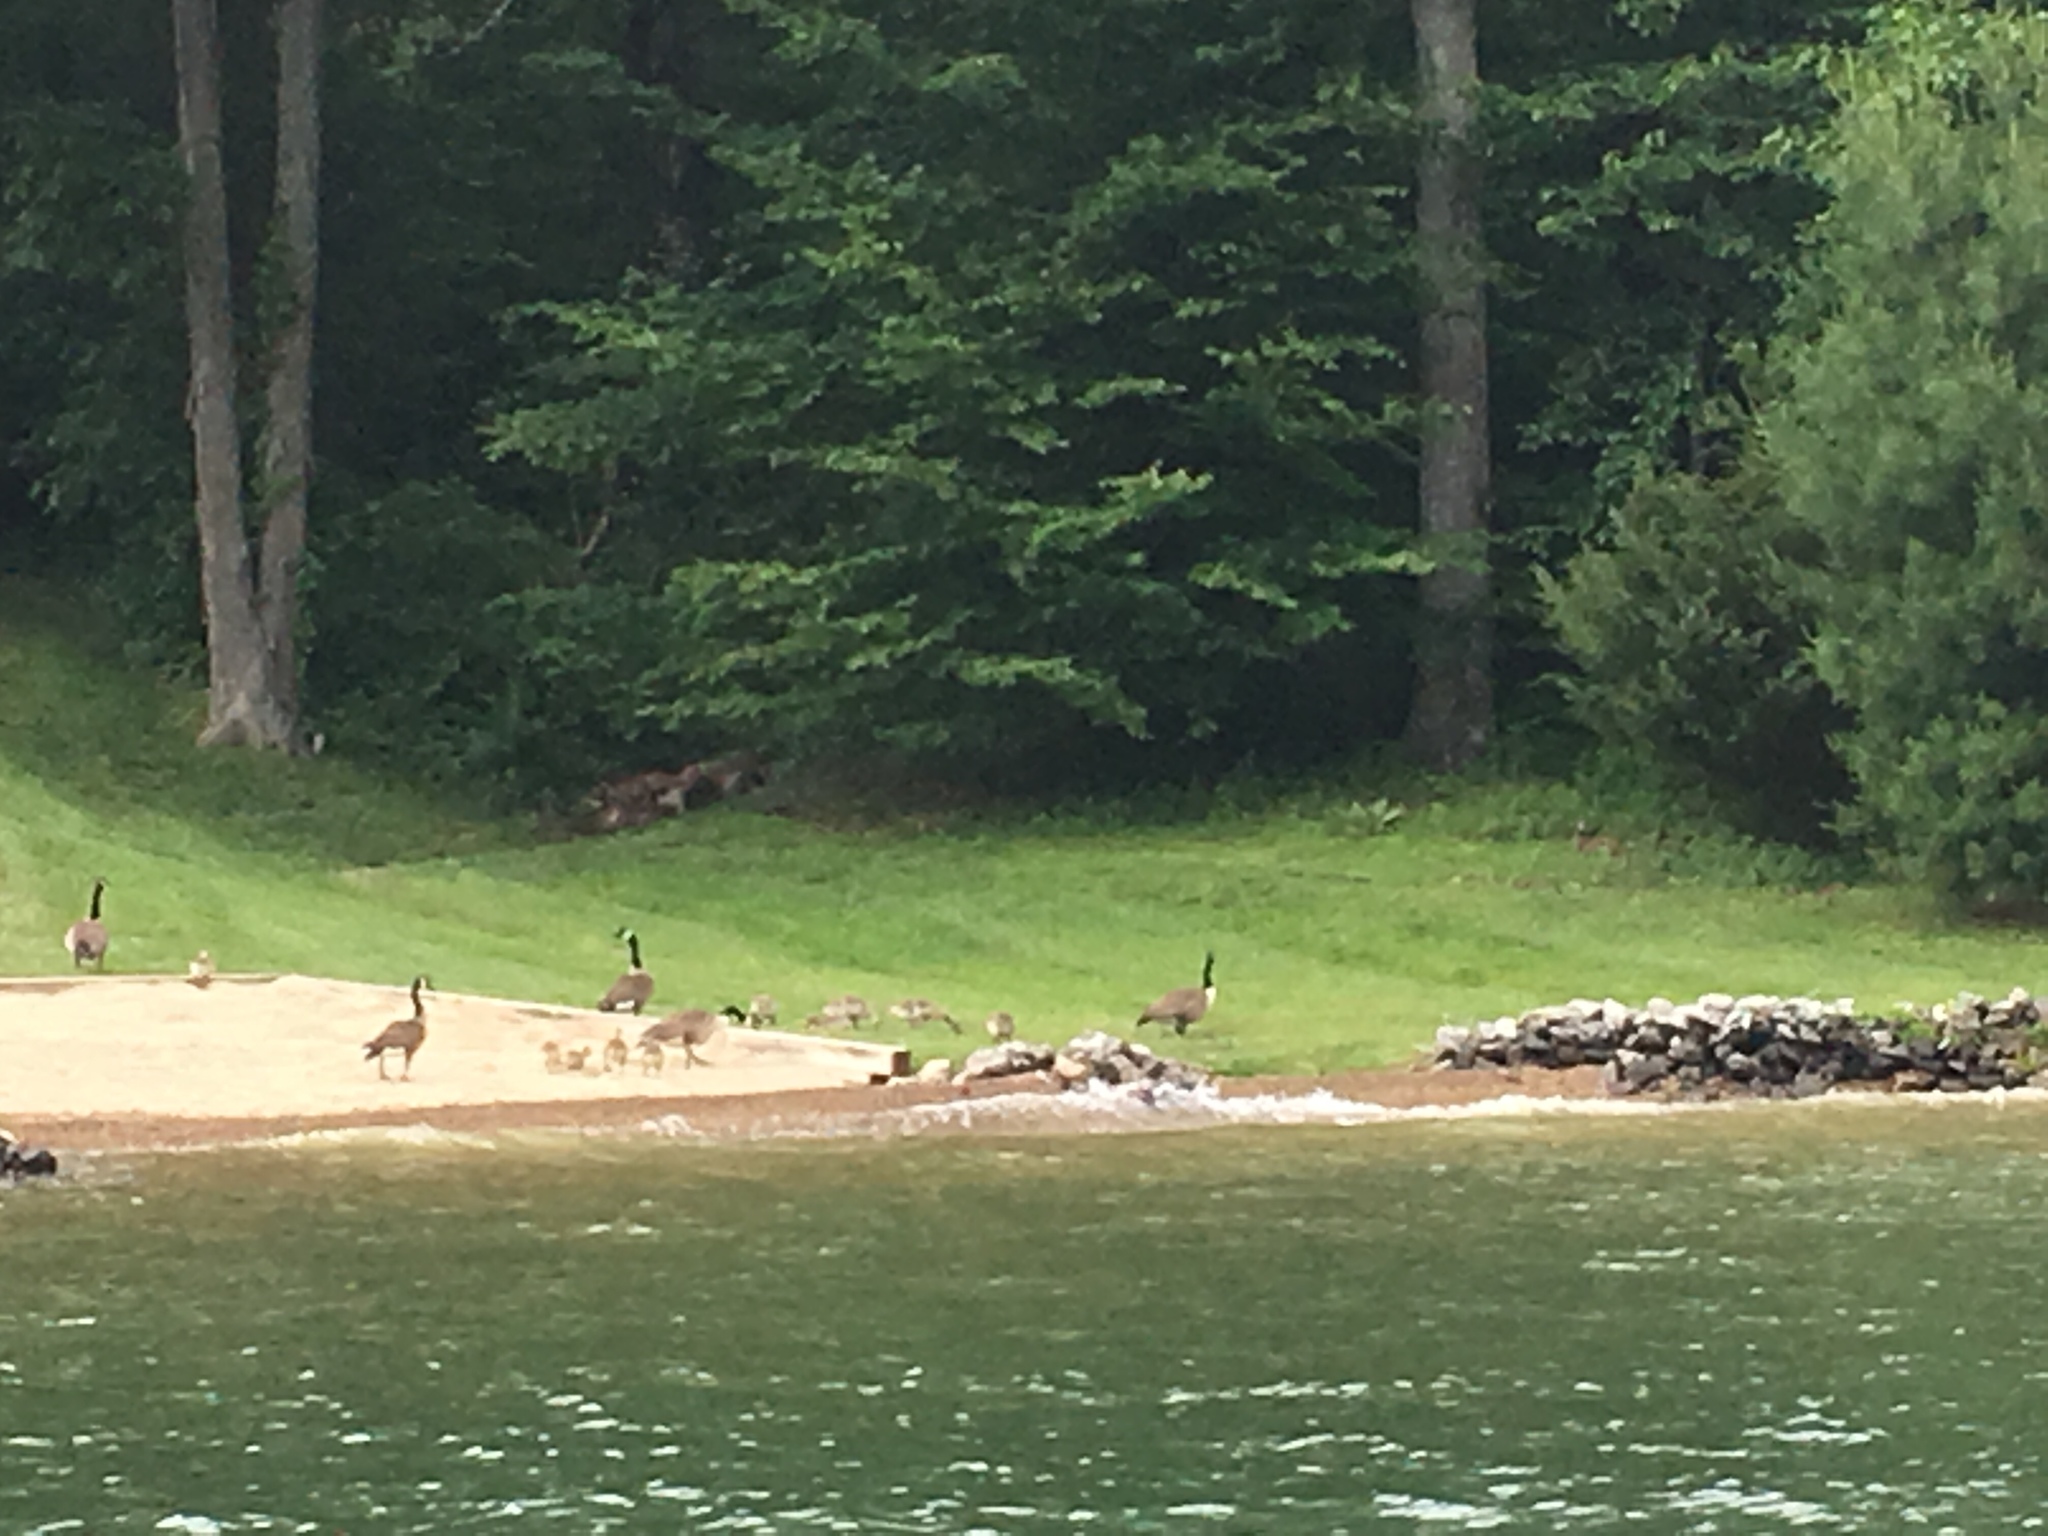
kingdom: Animalia
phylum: Chordata
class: Aves
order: Anseriformes
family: Anatidae
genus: Branta
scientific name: Branta canadensis
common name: Canada goose
